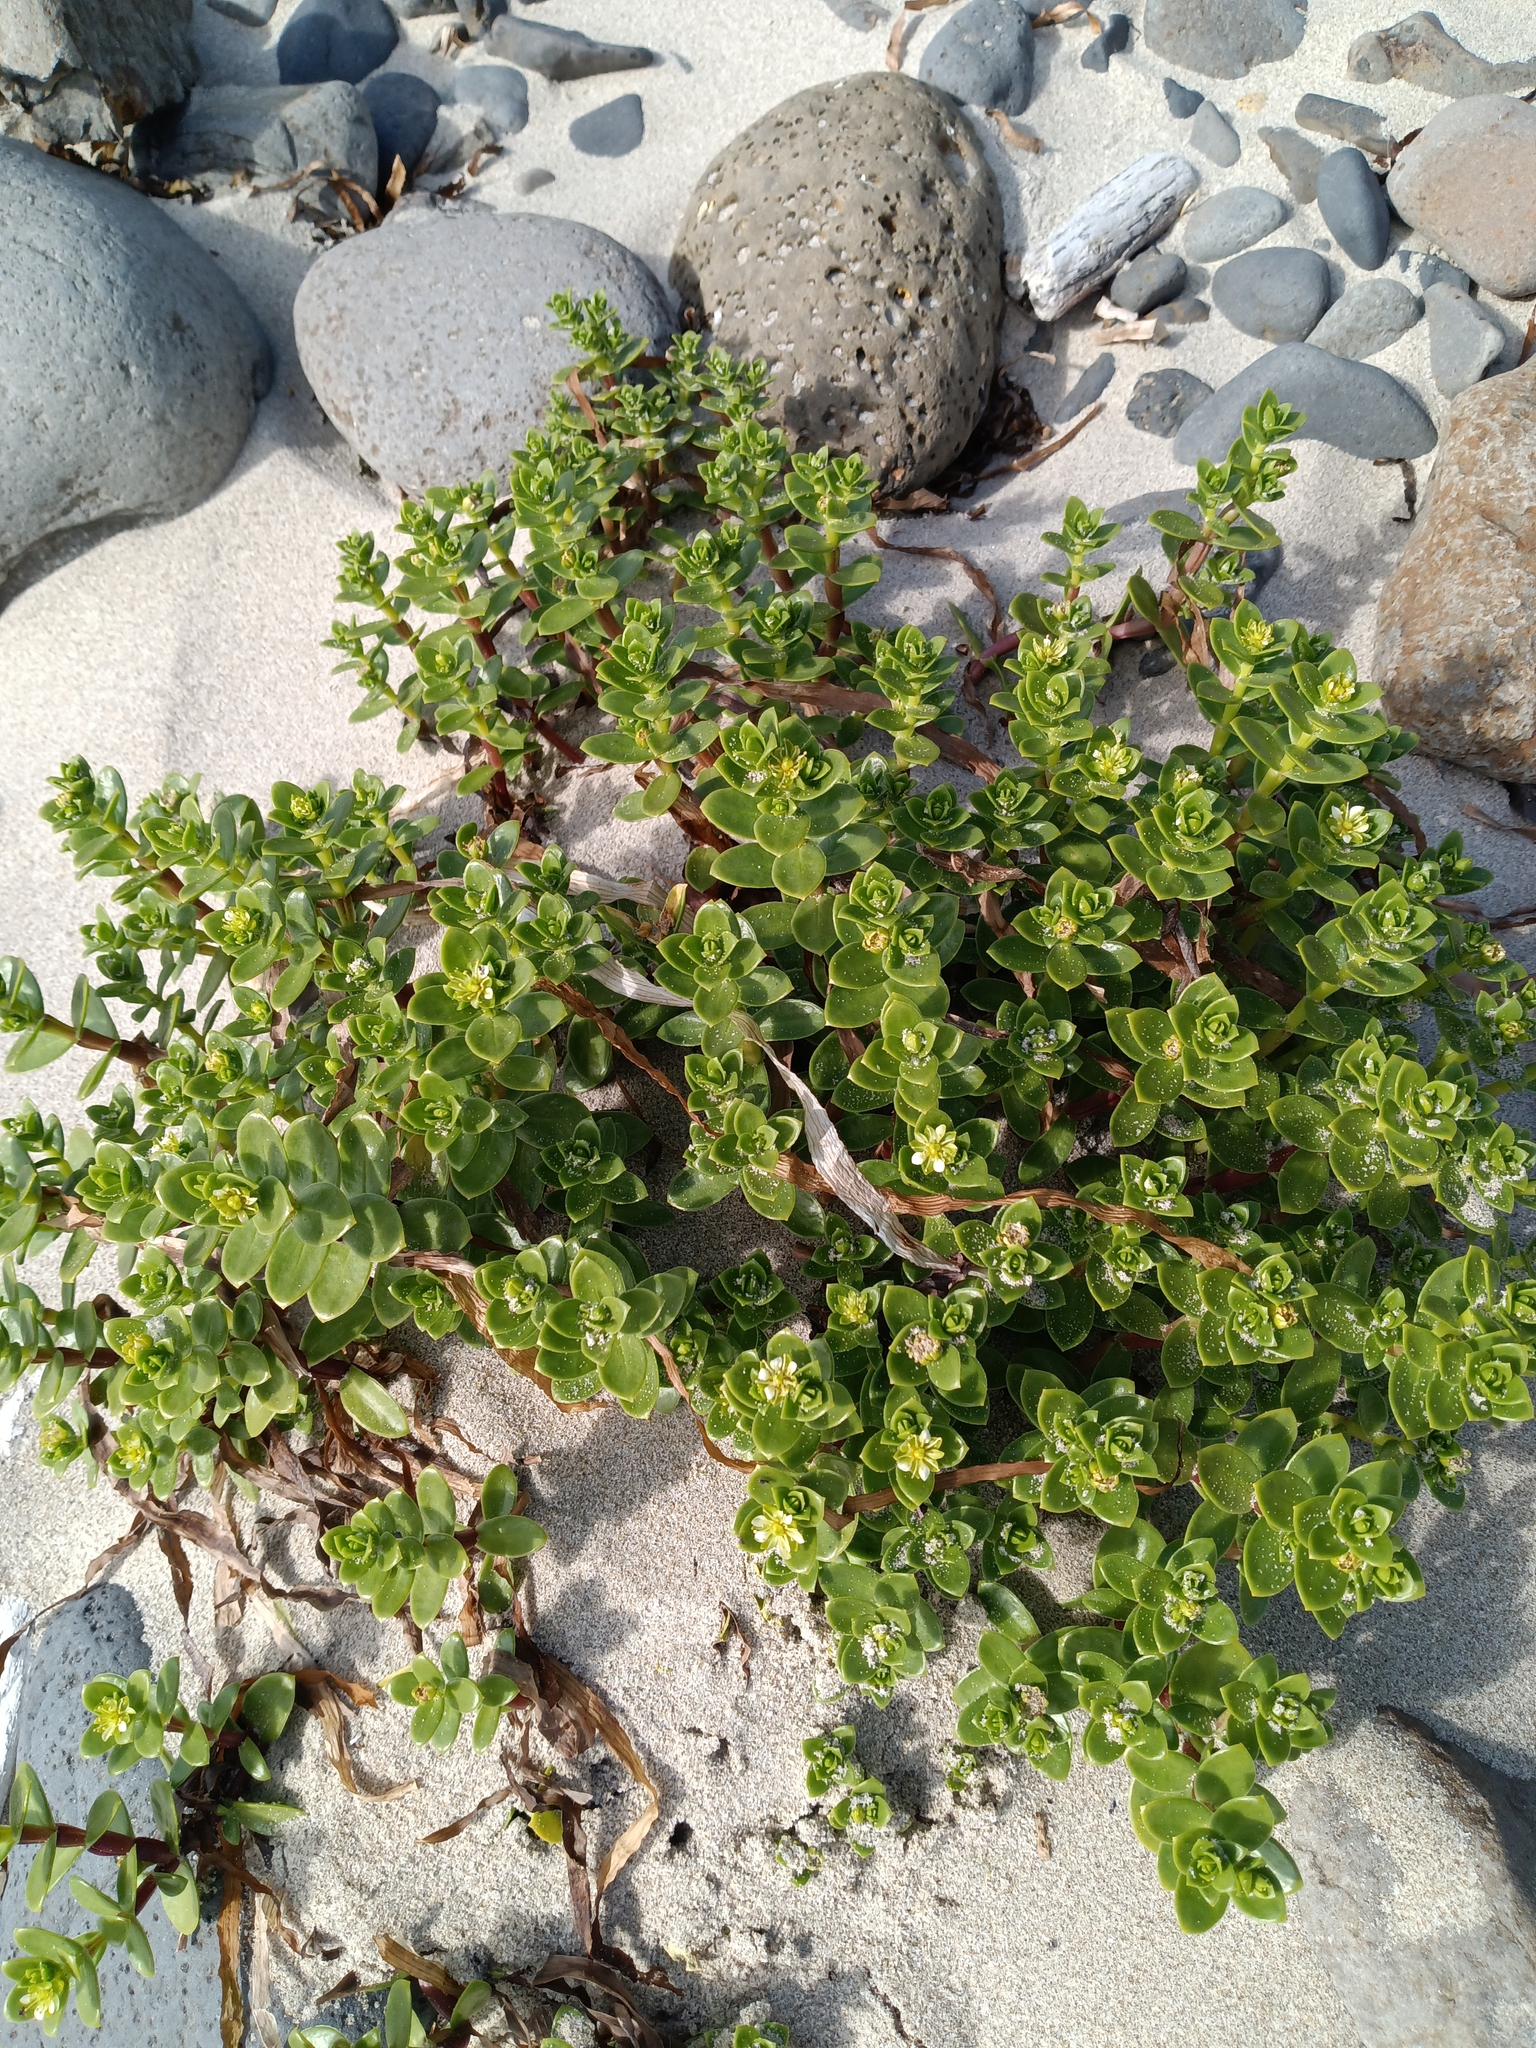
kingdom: Plantae
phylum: Tracheophyta
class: Magnoliopsida
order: Caryophyllales
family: Caryophyllaceae
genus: Honckenya
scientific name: Honckenya peploides
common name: Sea sandwort
